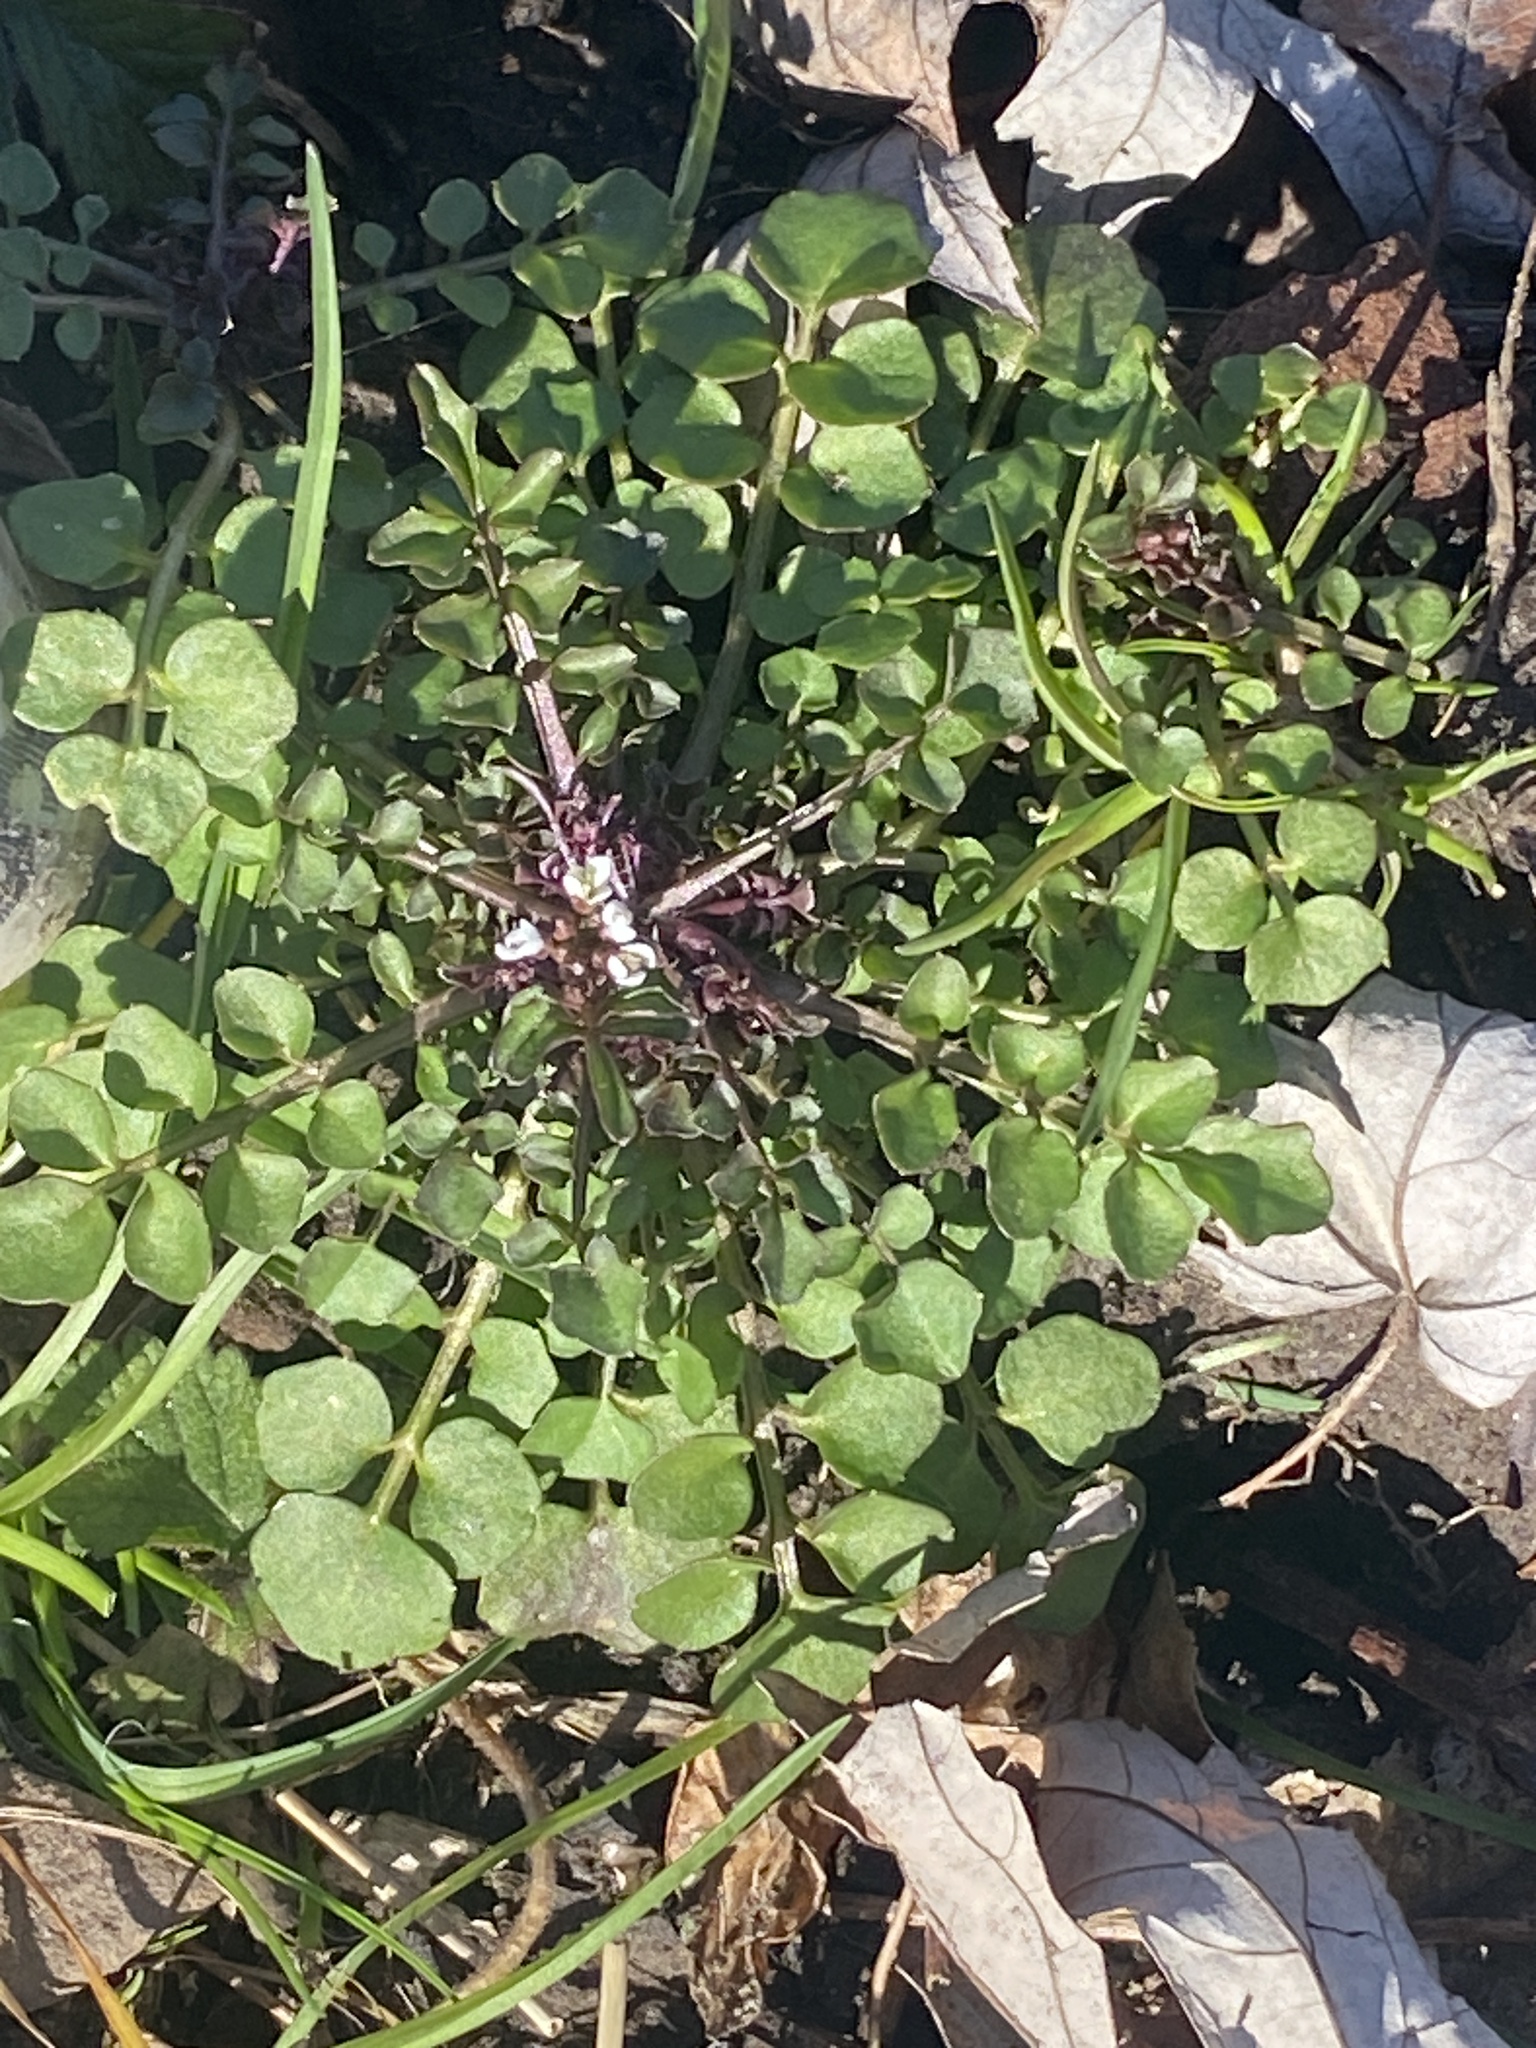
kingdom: Plantae
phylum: Tracheophyta
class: Magnoliopsida
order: Brassicales
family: Brassicaceae
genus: Cardamine
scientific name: Cardamine hirsuta
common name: Hairy bittercress
